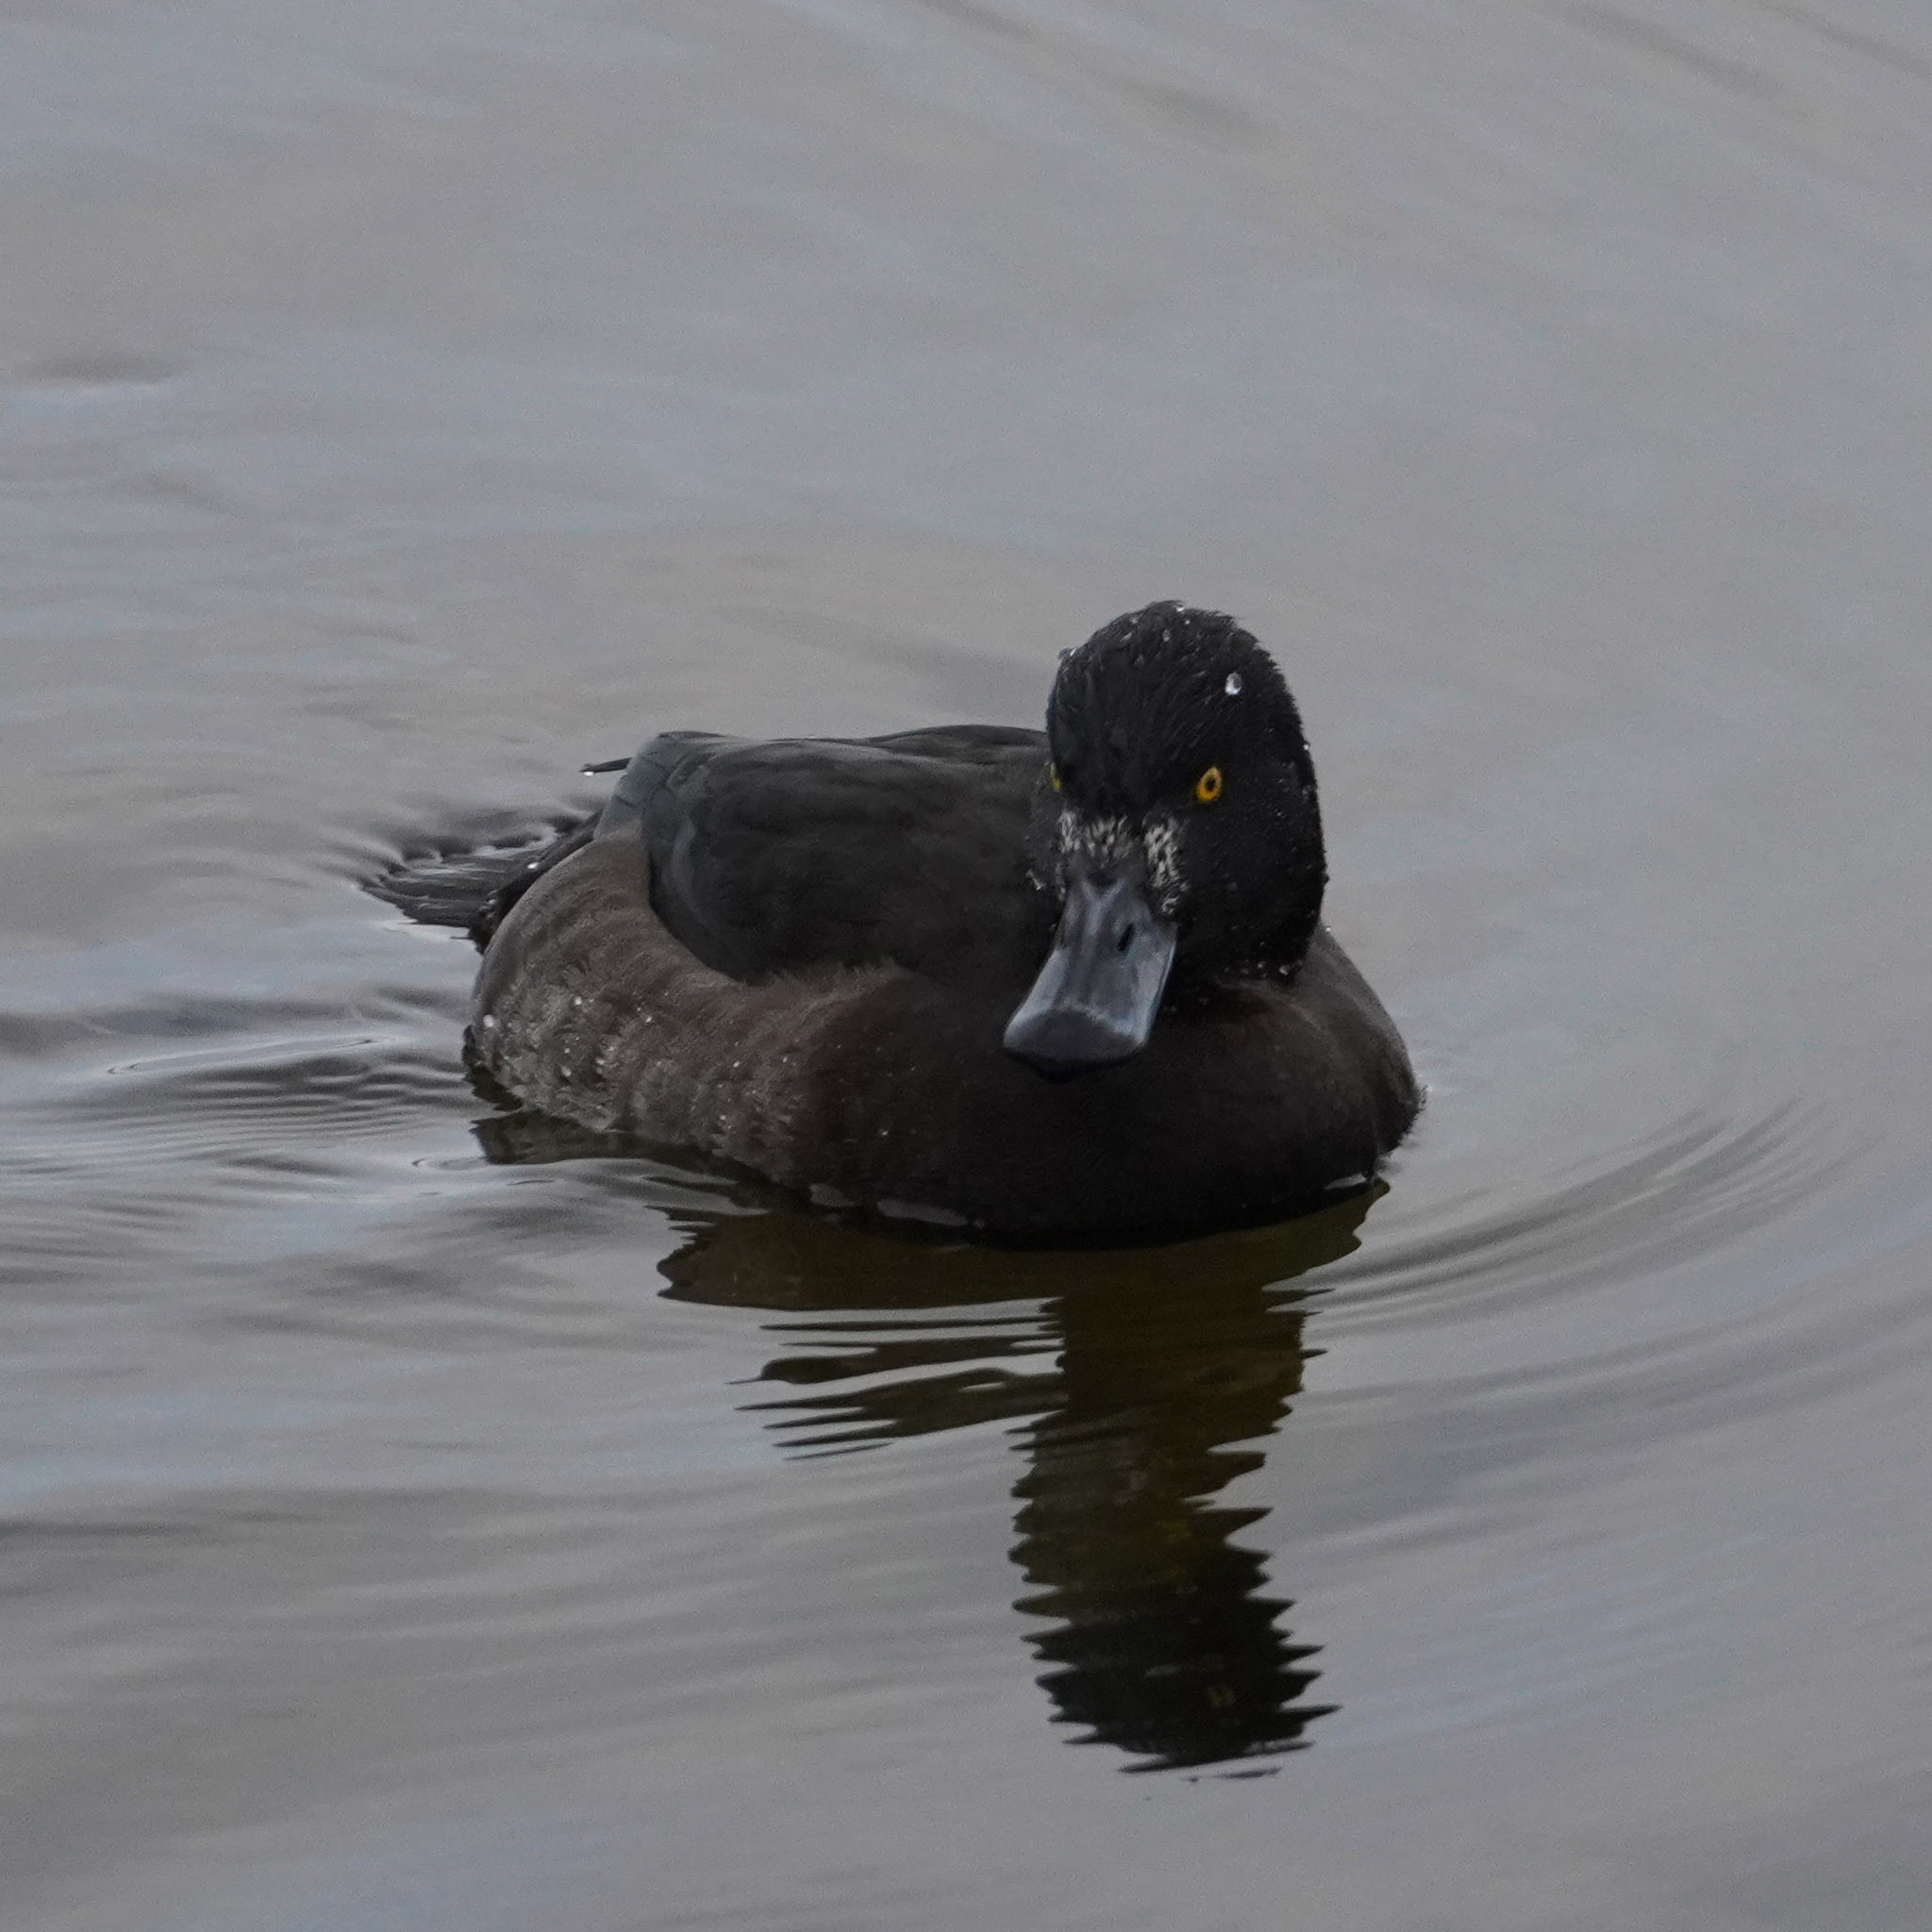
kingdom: Animalia
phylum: Chordata
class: Aves
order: Anseriformes
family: Anatidae
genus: Aythya
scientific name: Aythya fuligula
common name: Tufted duck
